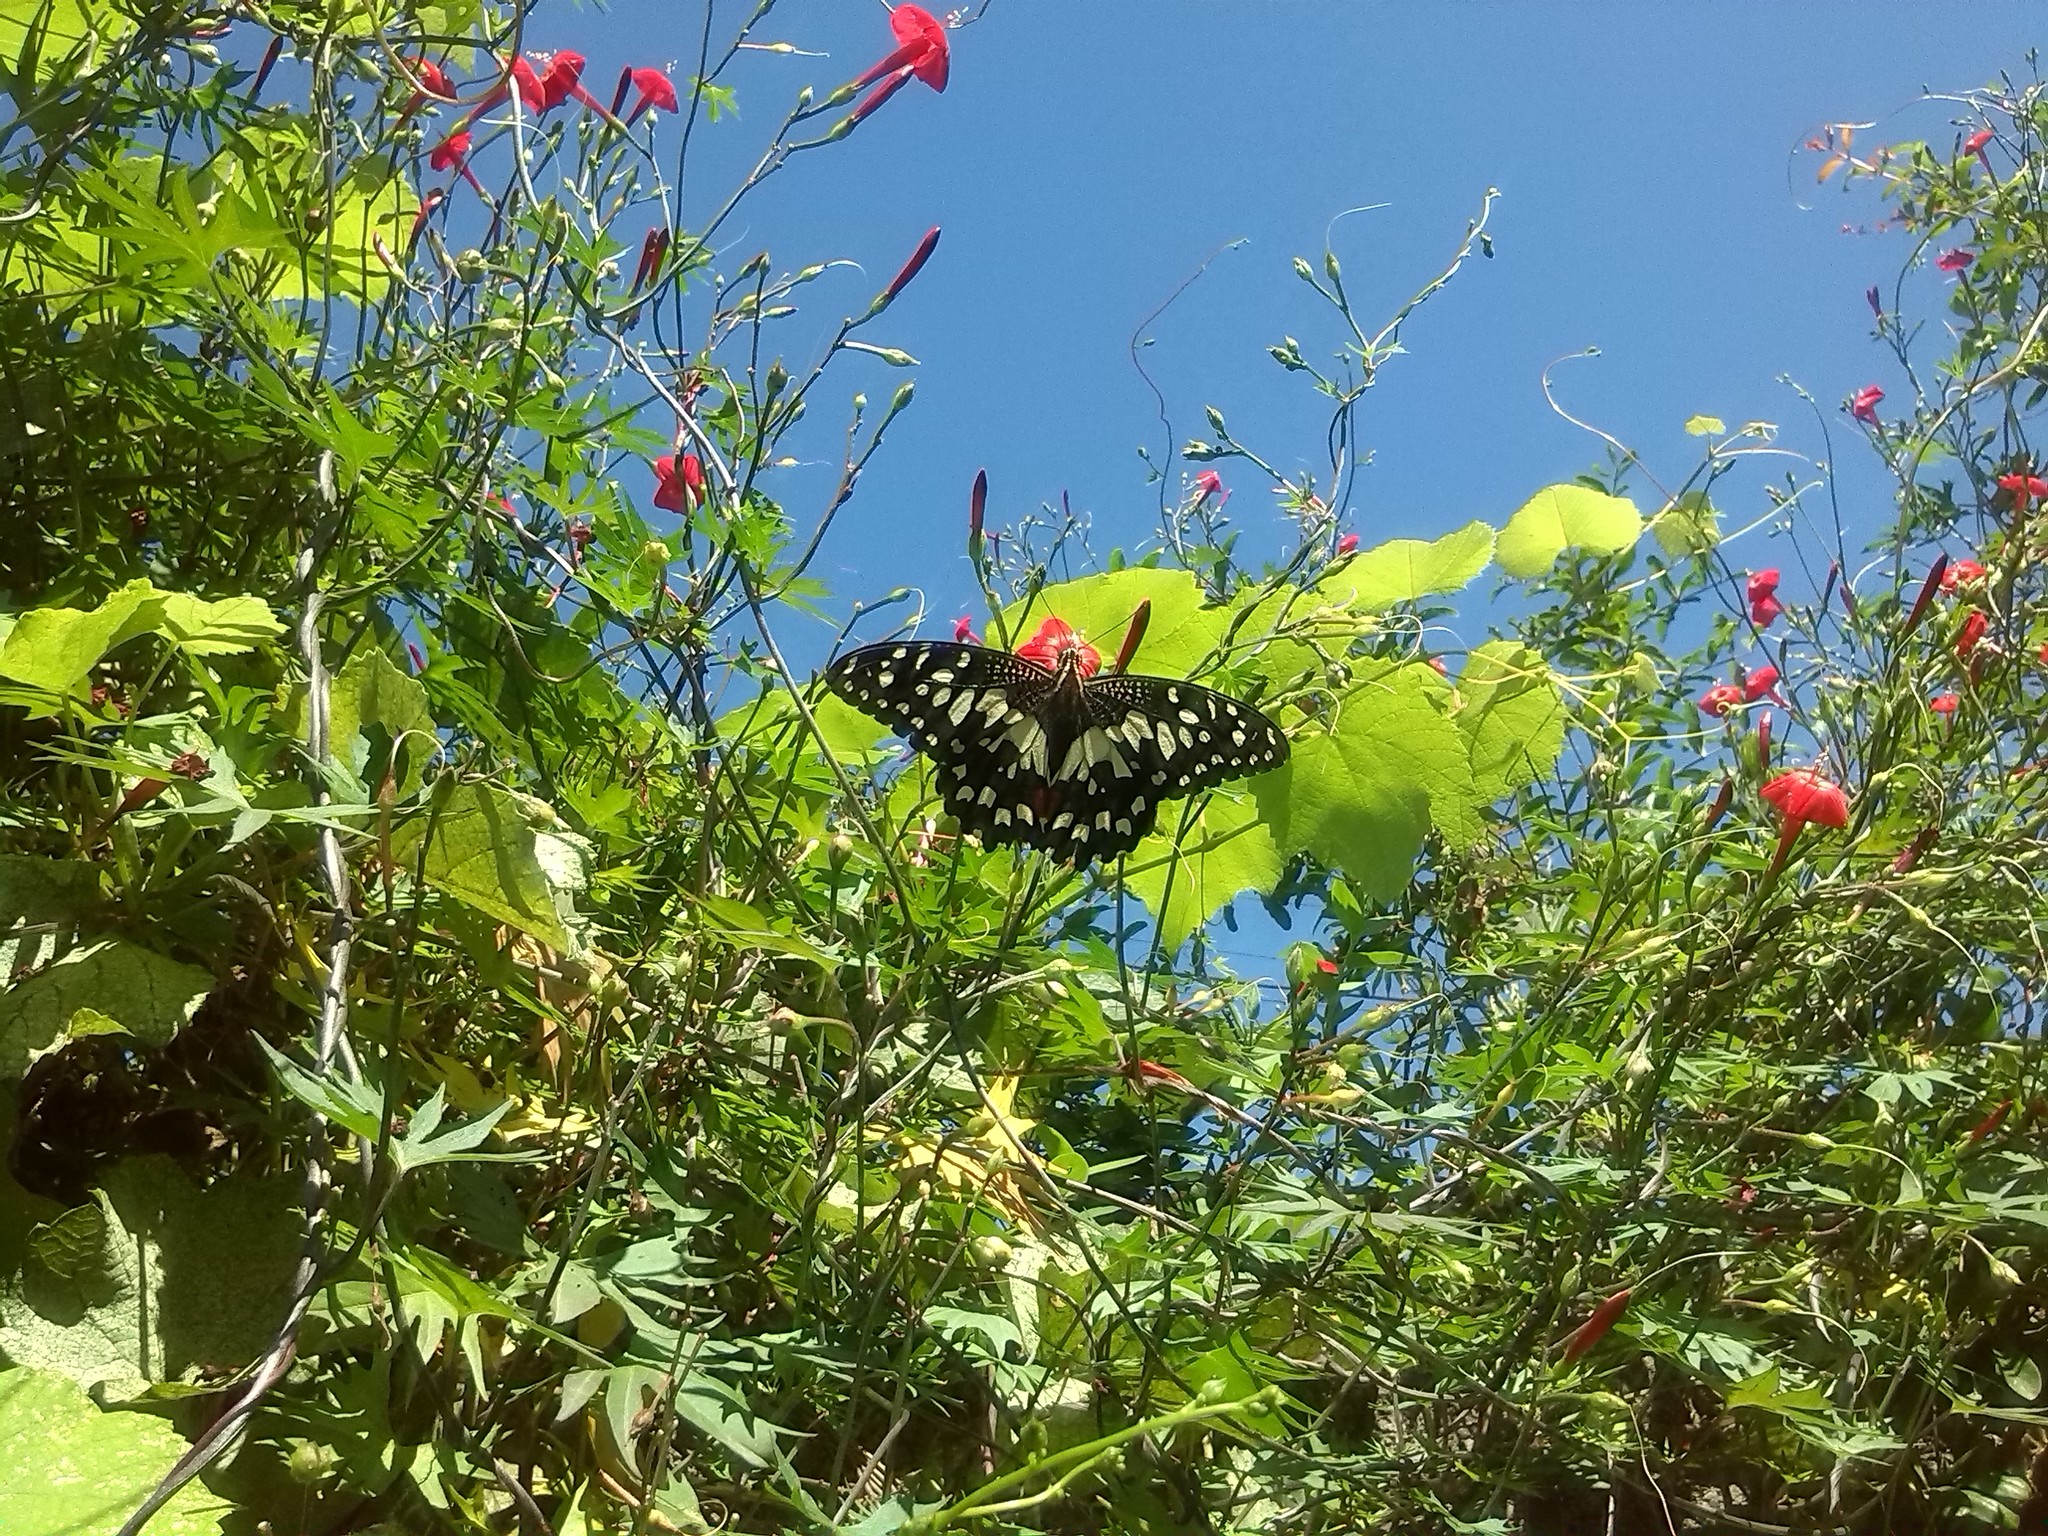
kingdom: Animalia
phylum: Arthropoda
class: Insecta
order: Lepidoptera
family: Papilionidae
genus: Papilio
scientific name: Papilio demoleus
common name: Lime butterfly
